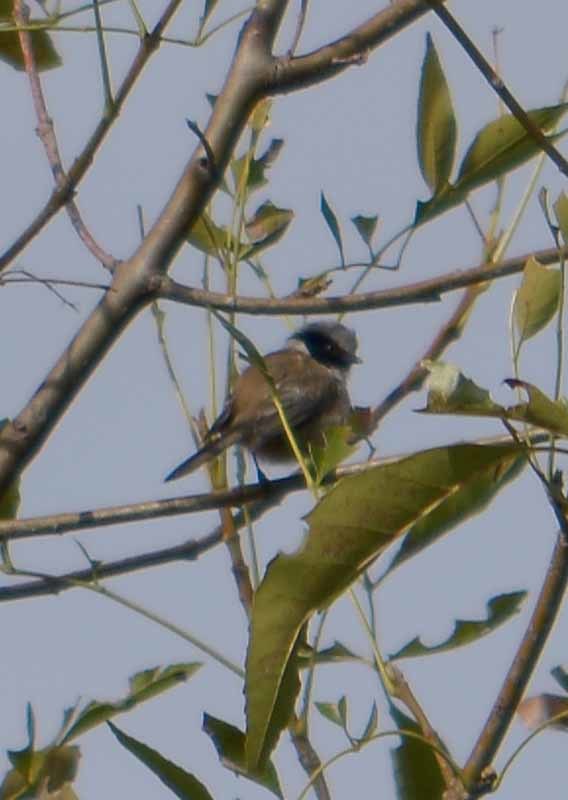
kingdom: Animalia
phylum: Chordata
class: Aves
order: Passeriformes
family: Aegithalidae
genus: Psaltriparus
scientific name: Psaltriparus minimus
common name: American bushtit
